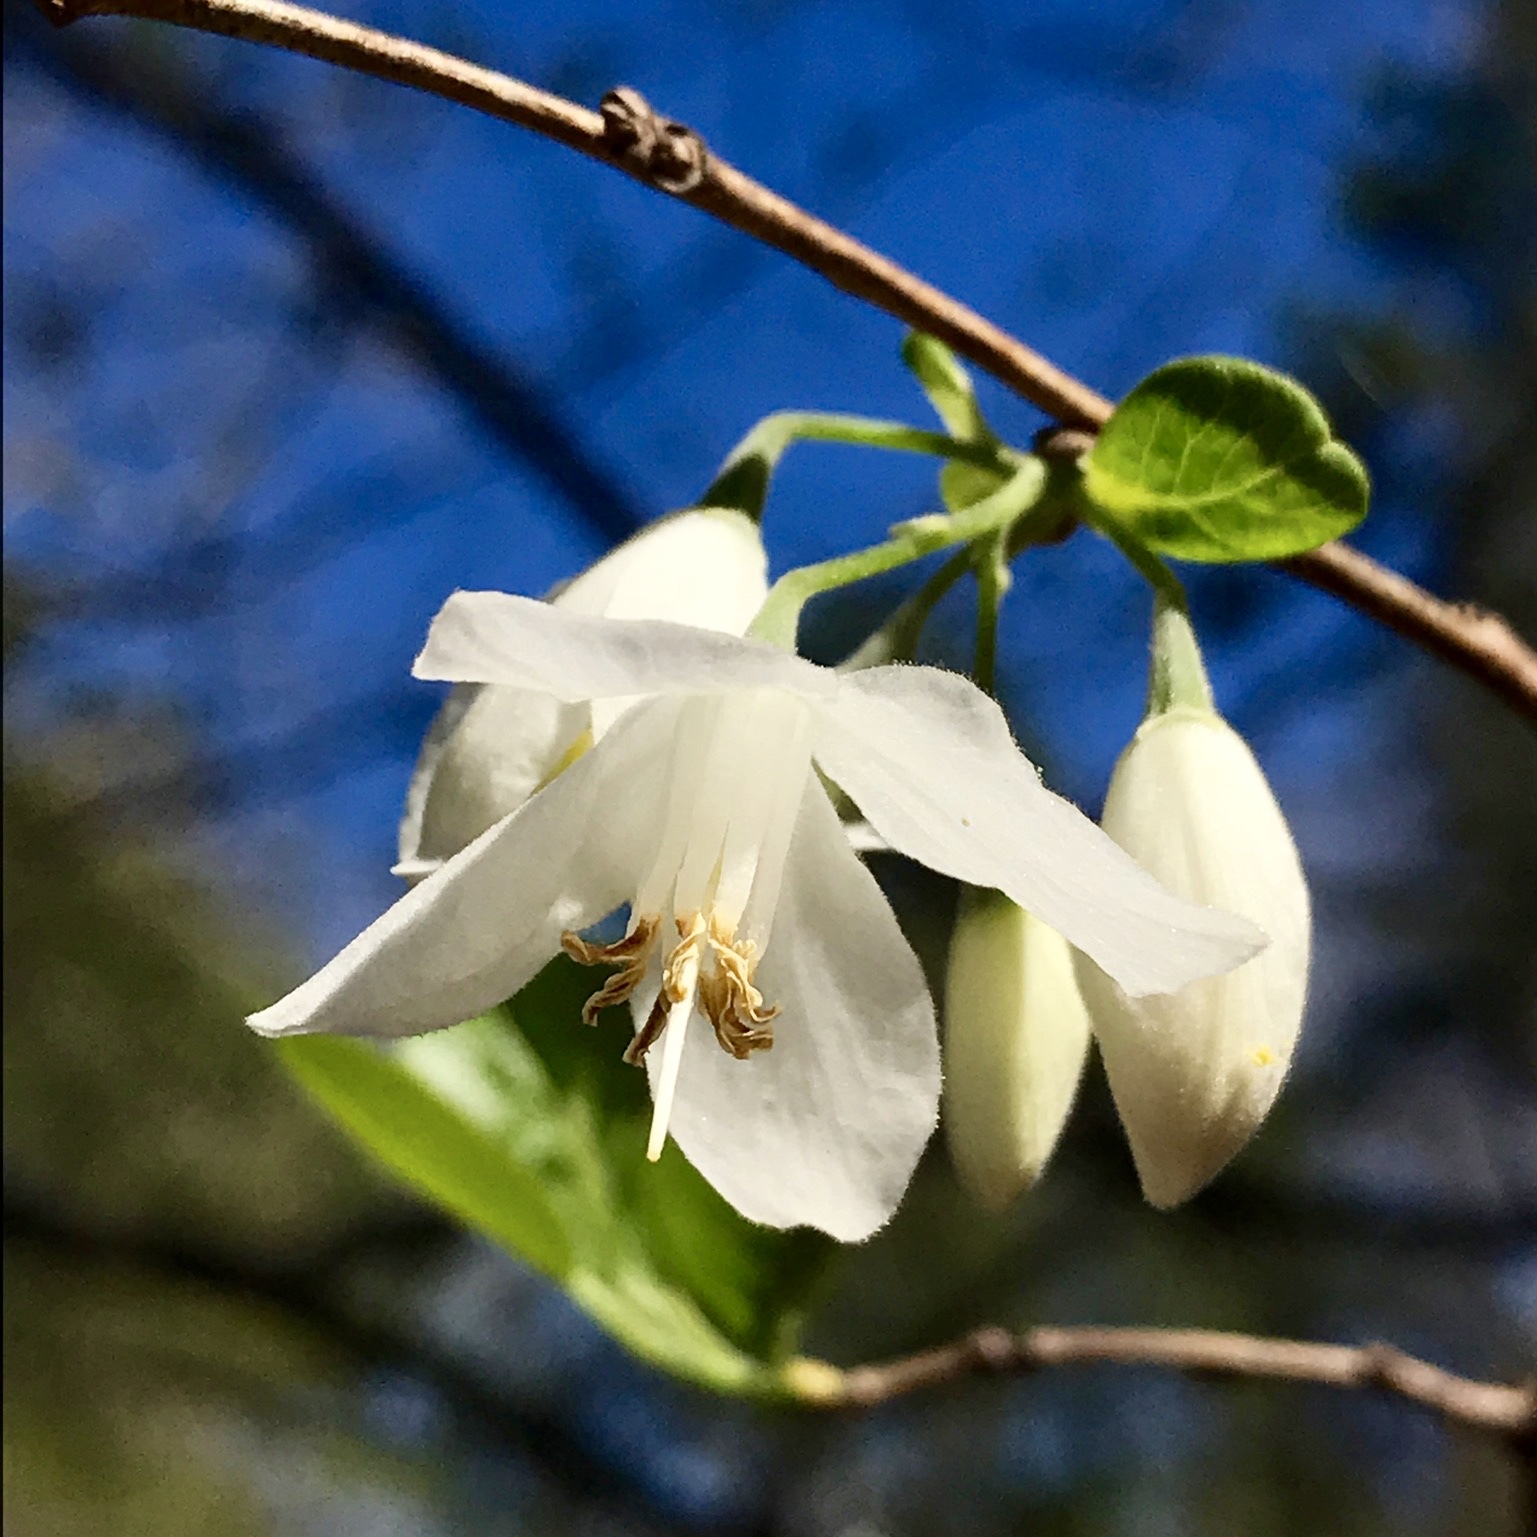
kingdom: Plantae
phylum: Tracheophyta
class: Magnoliopsida
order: Ericales
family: Styracaceae
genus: Halesia
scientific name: Halesia diptera
